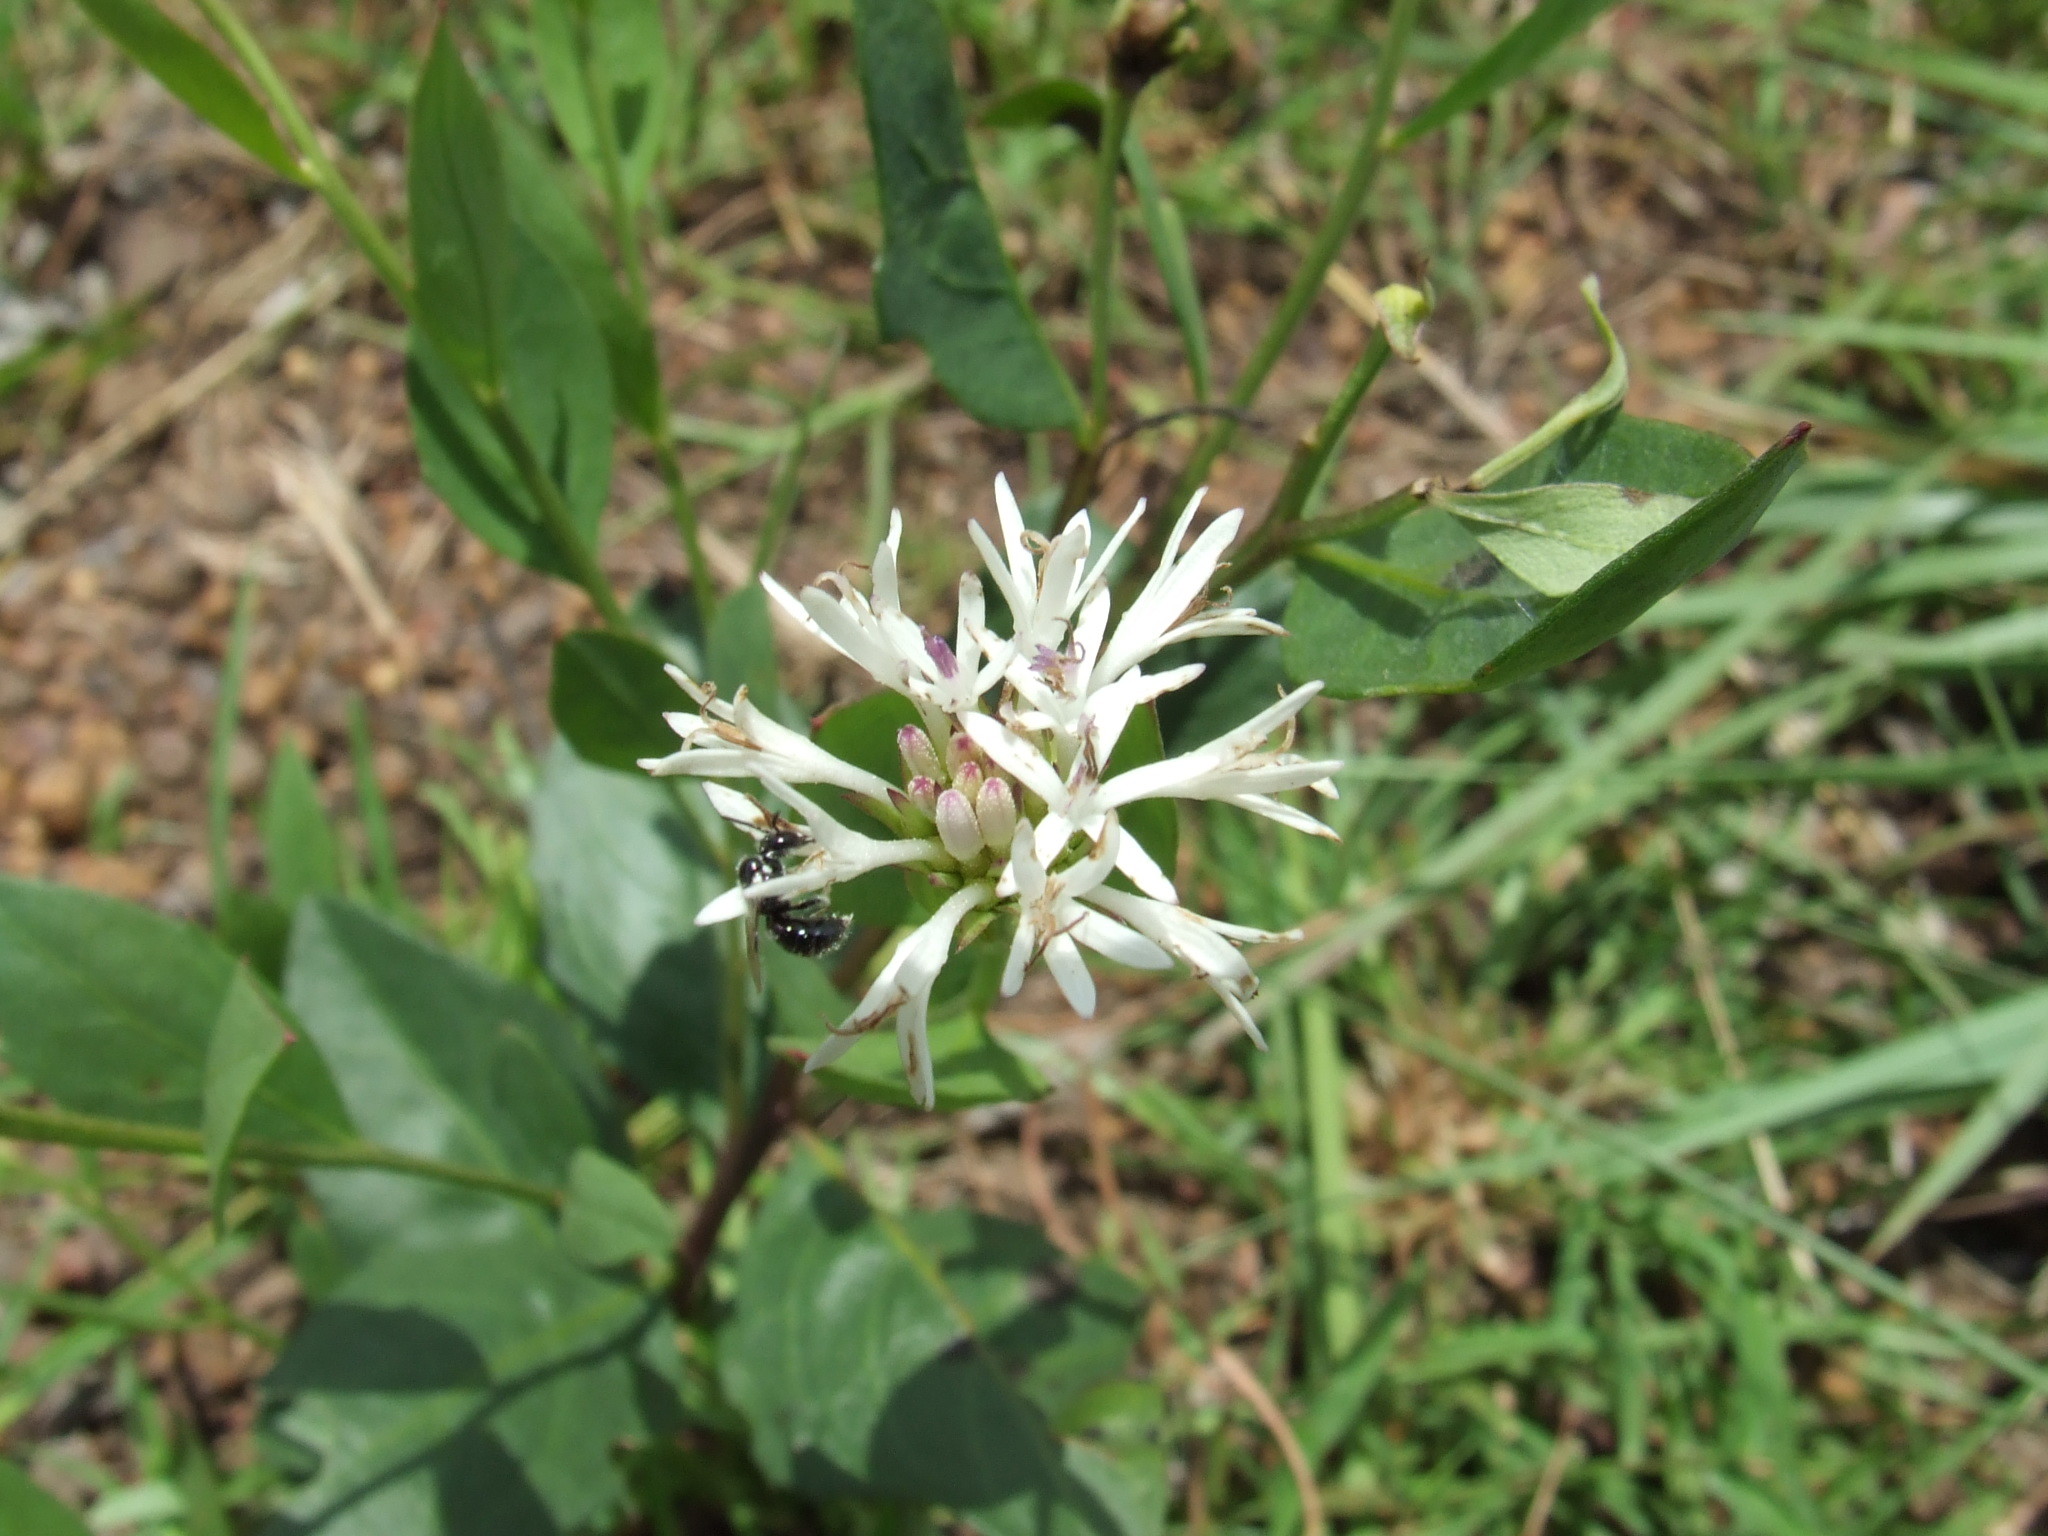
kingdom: Plantae
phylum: Tracheophyta
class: Magnoliopsida
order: Asterales
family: Asteraceae
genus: Pleurocarpaea
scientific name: Pleurocarpaea denticulata
